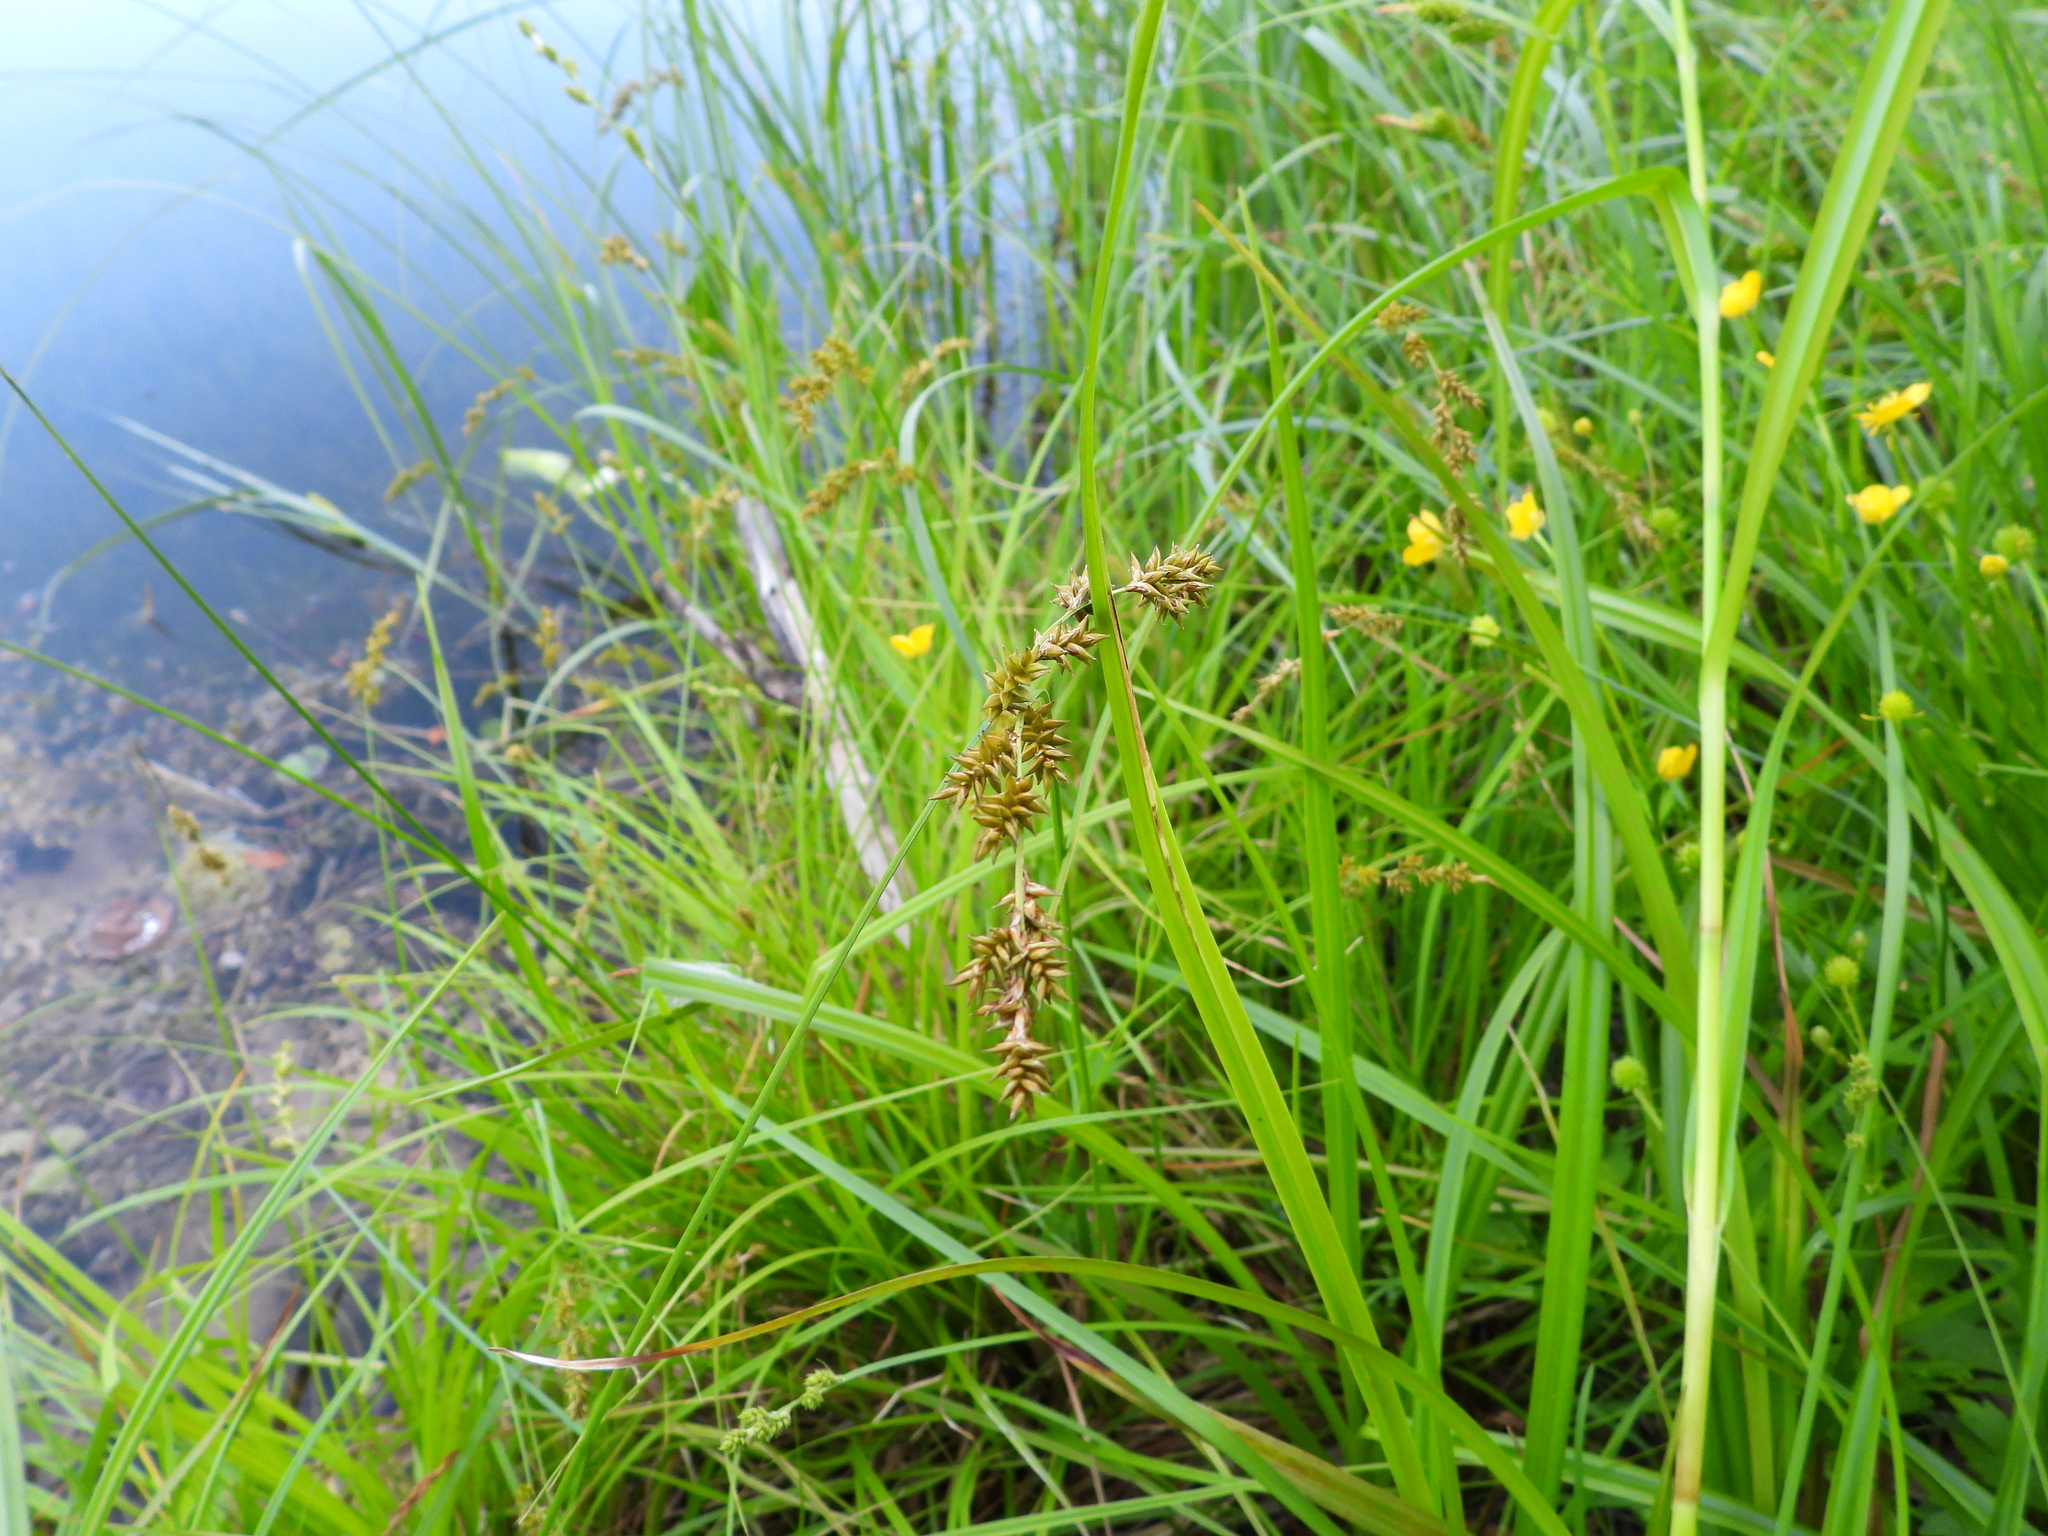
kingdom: Plantae
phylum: Tracheophyta
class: Liliopsida
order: Poales
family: Cyperaceae
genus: Carex
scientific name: Carex elongata
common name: Elongated sedge
